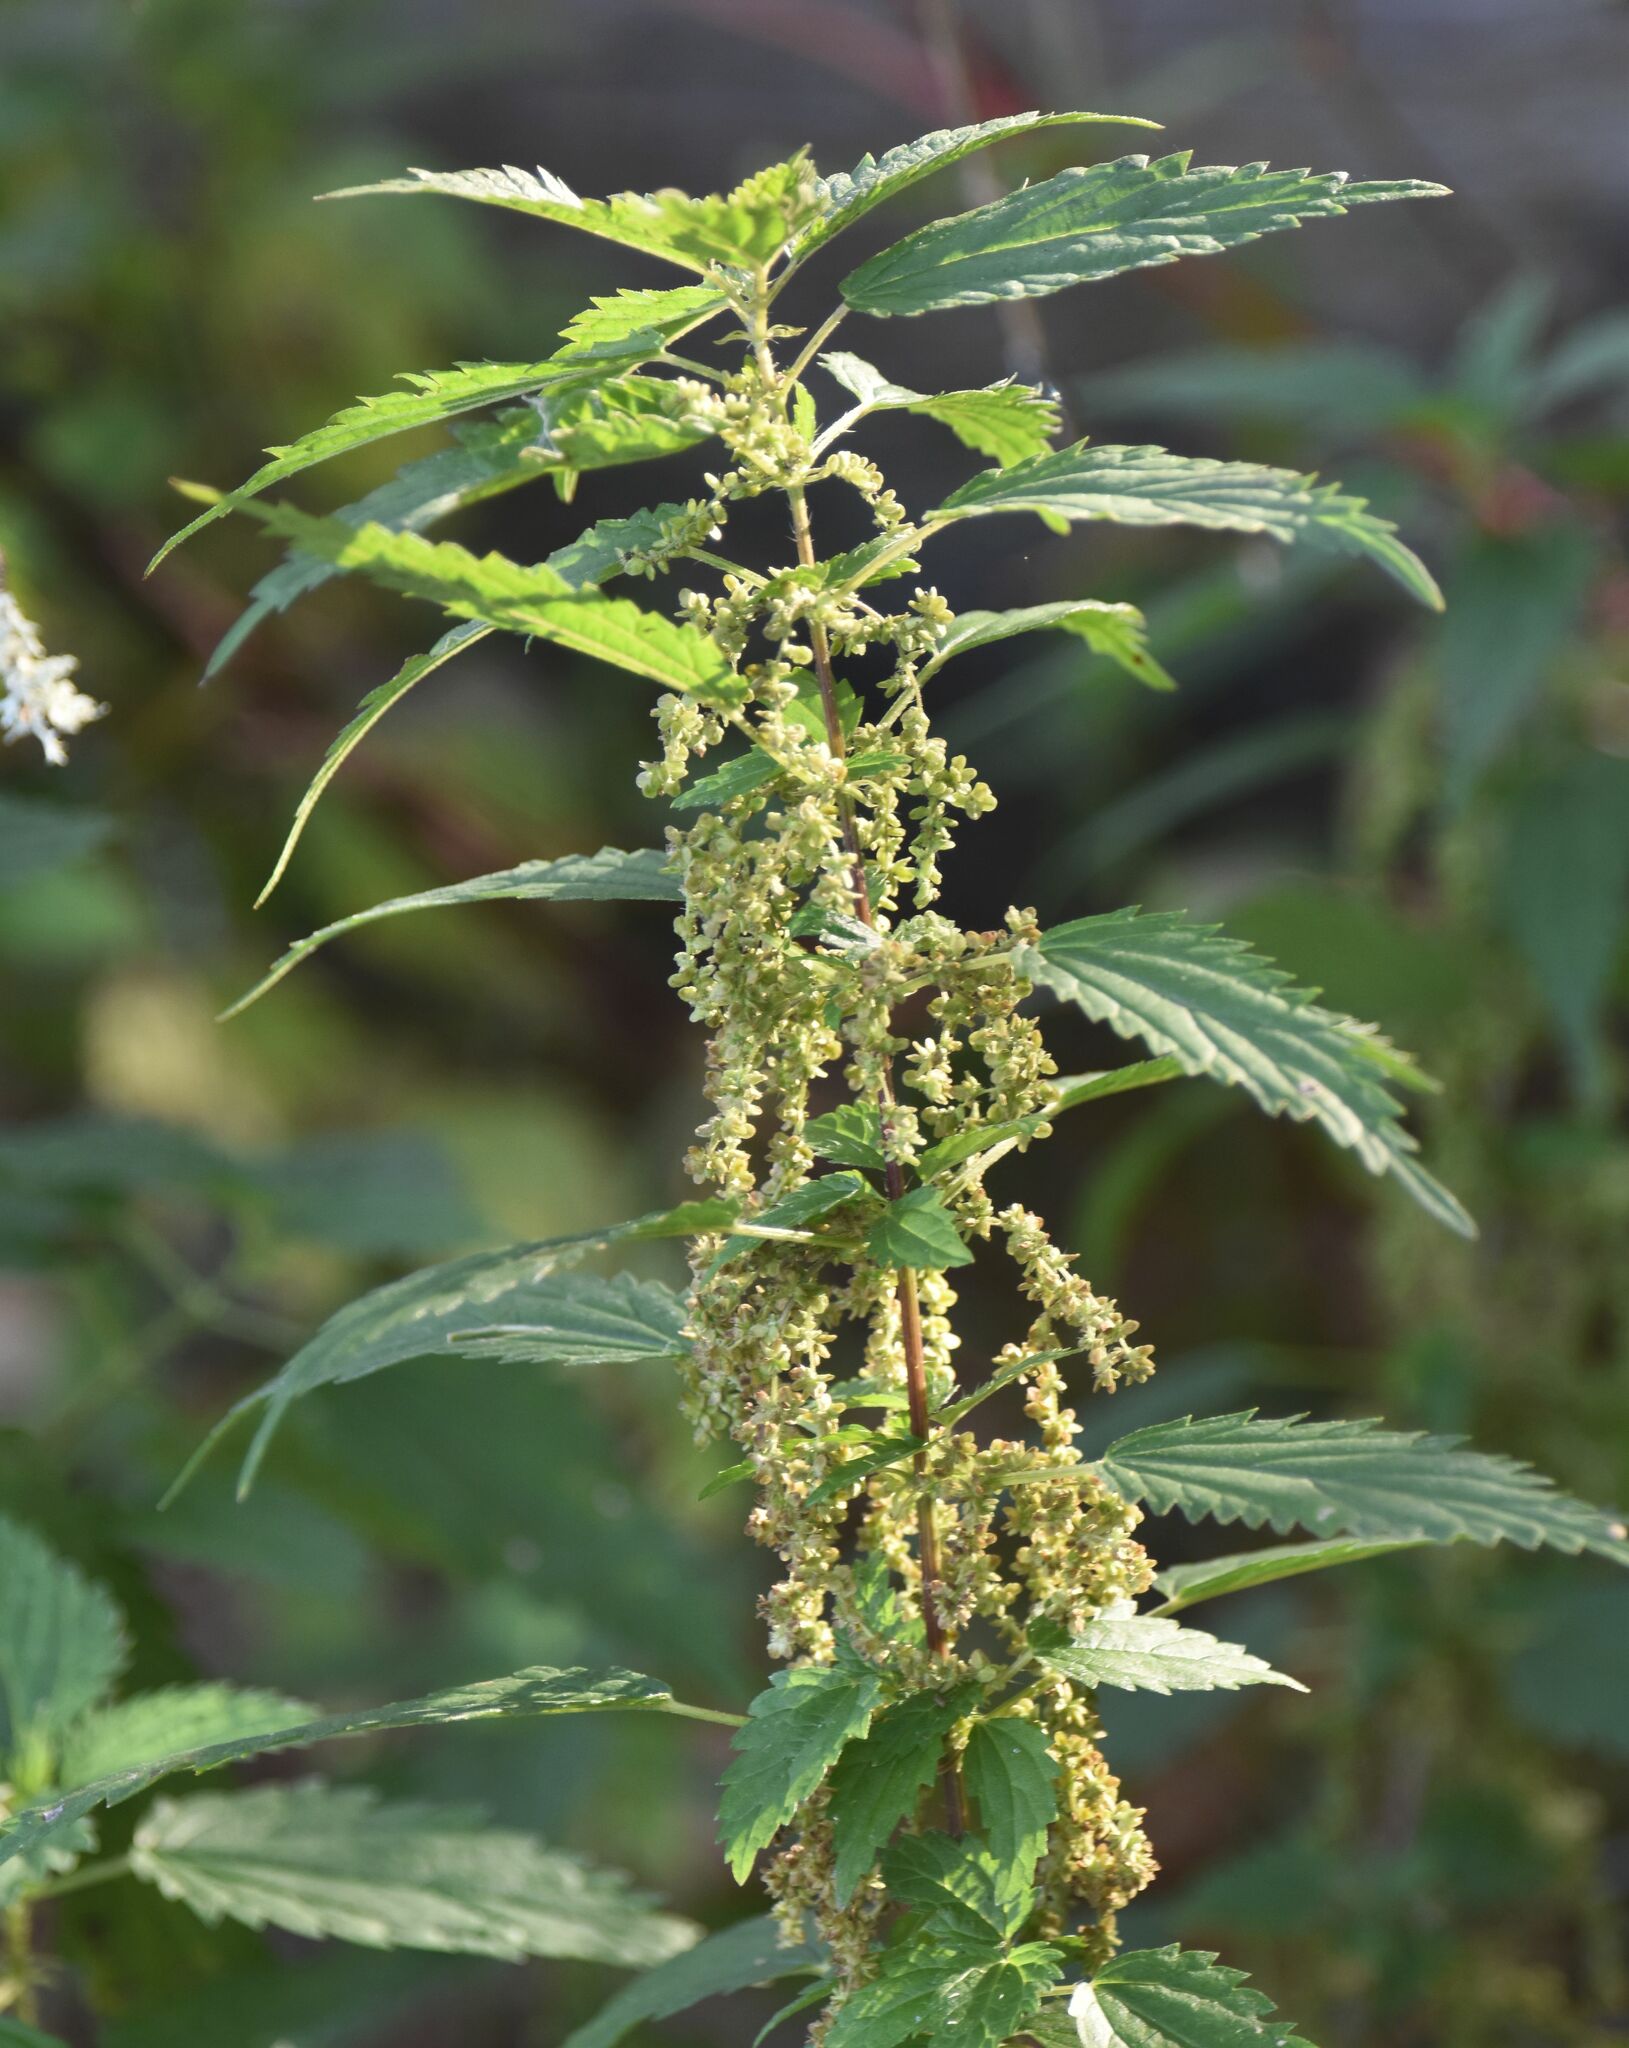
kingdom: Plantae
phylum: Tracheophyta
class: Magnoliopsida
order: Rosales
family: Urticaceae
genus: Urtica
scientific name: Urtica gracilis
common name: Slender stinging nettle
